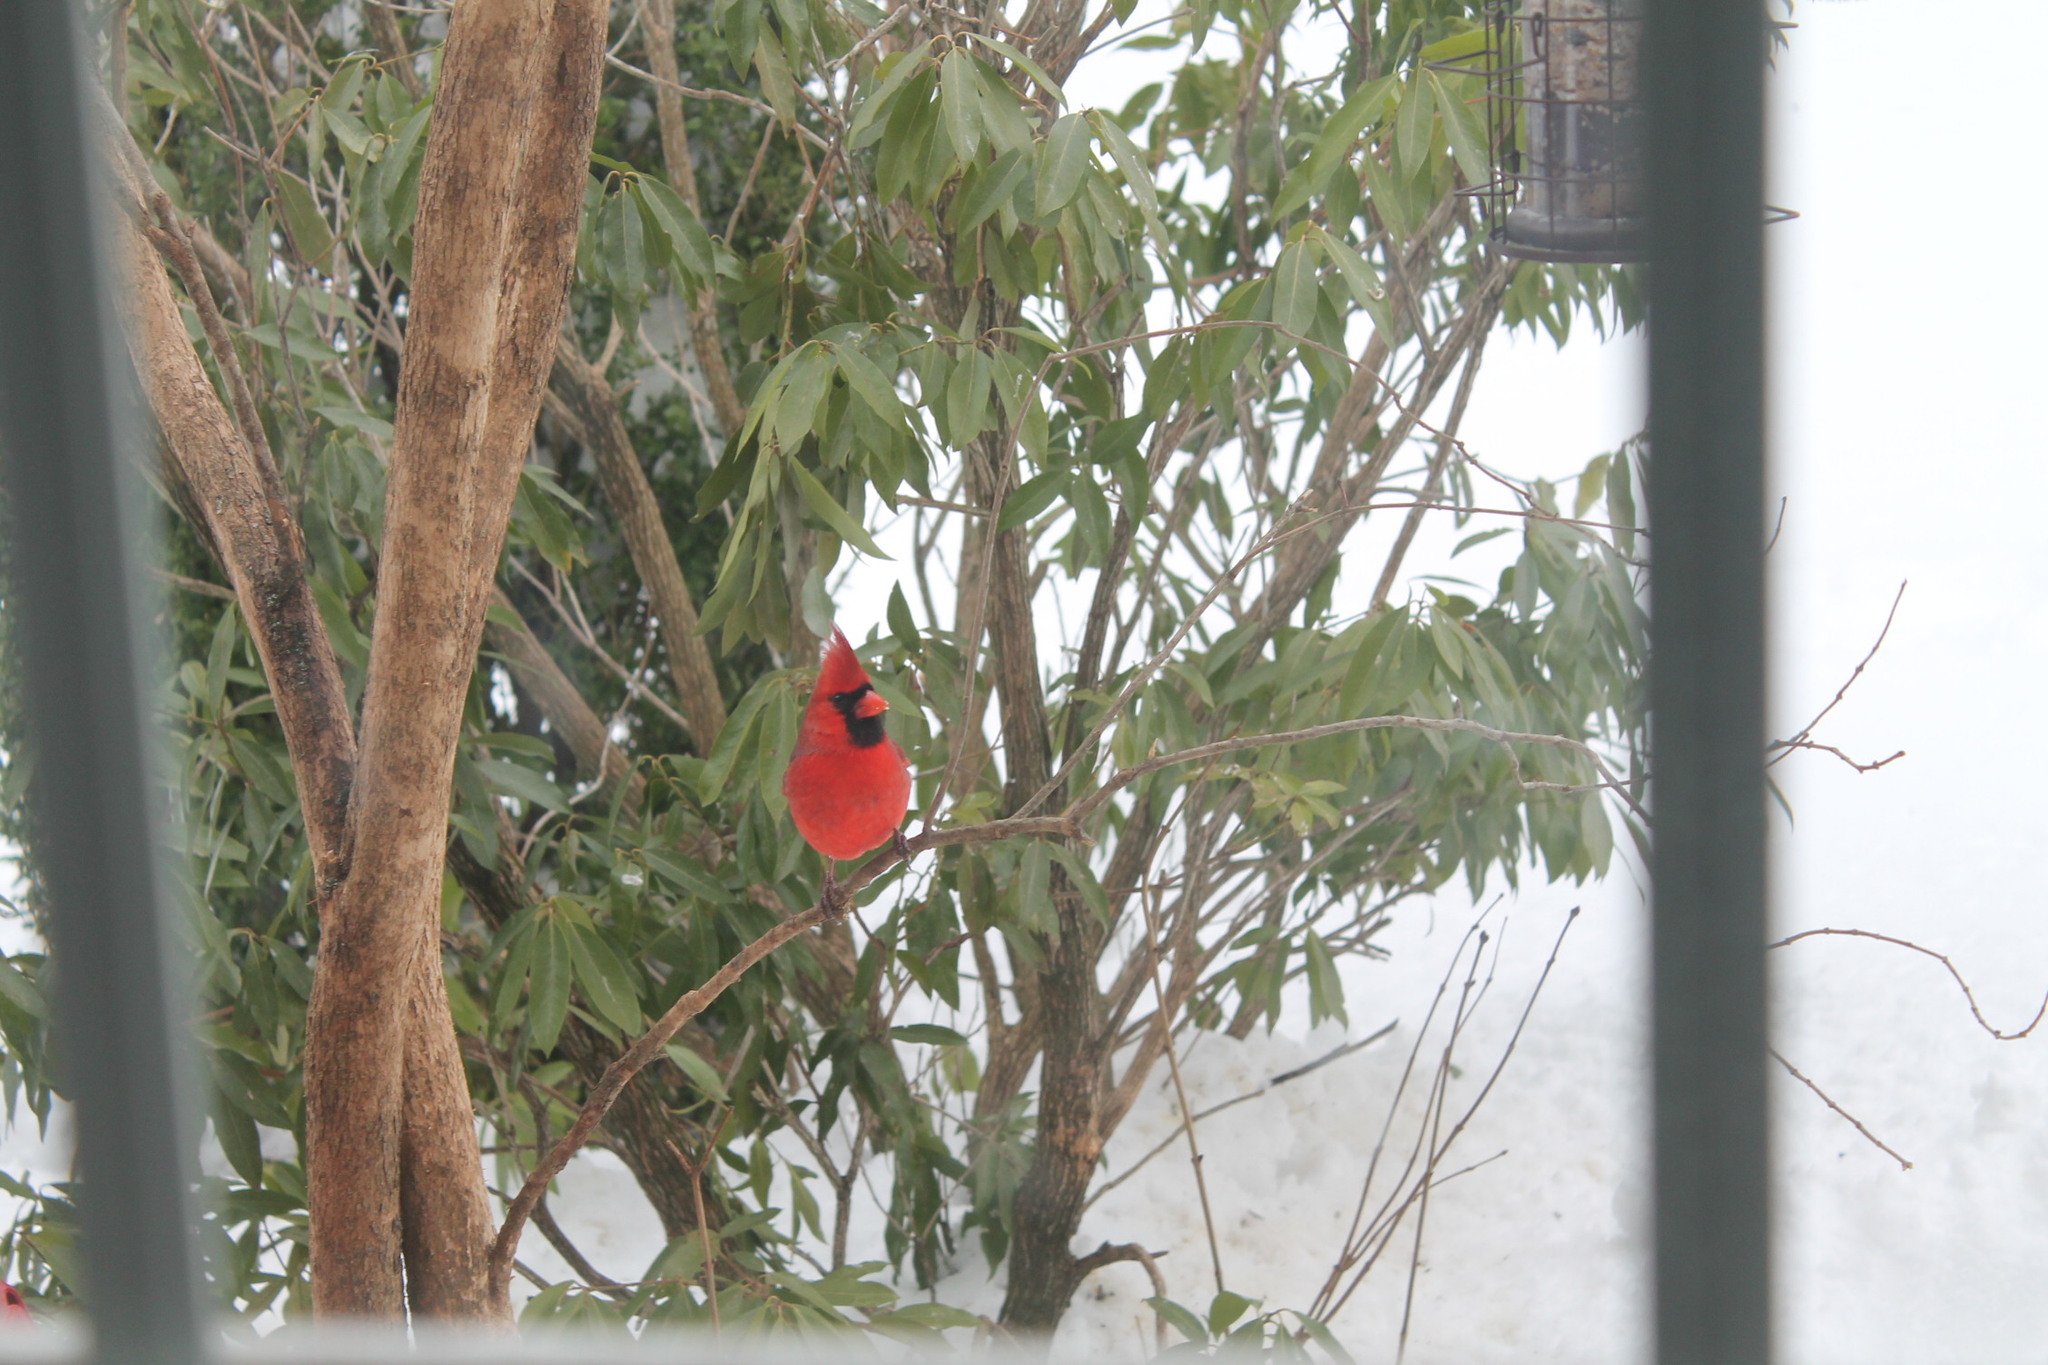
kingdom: Animalia
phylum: Chordata
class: Aves
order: Passeriformes
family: Cardinalidae
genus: Cardinalis
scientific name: Cardinalis cardinalis
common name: Northern cardinal
